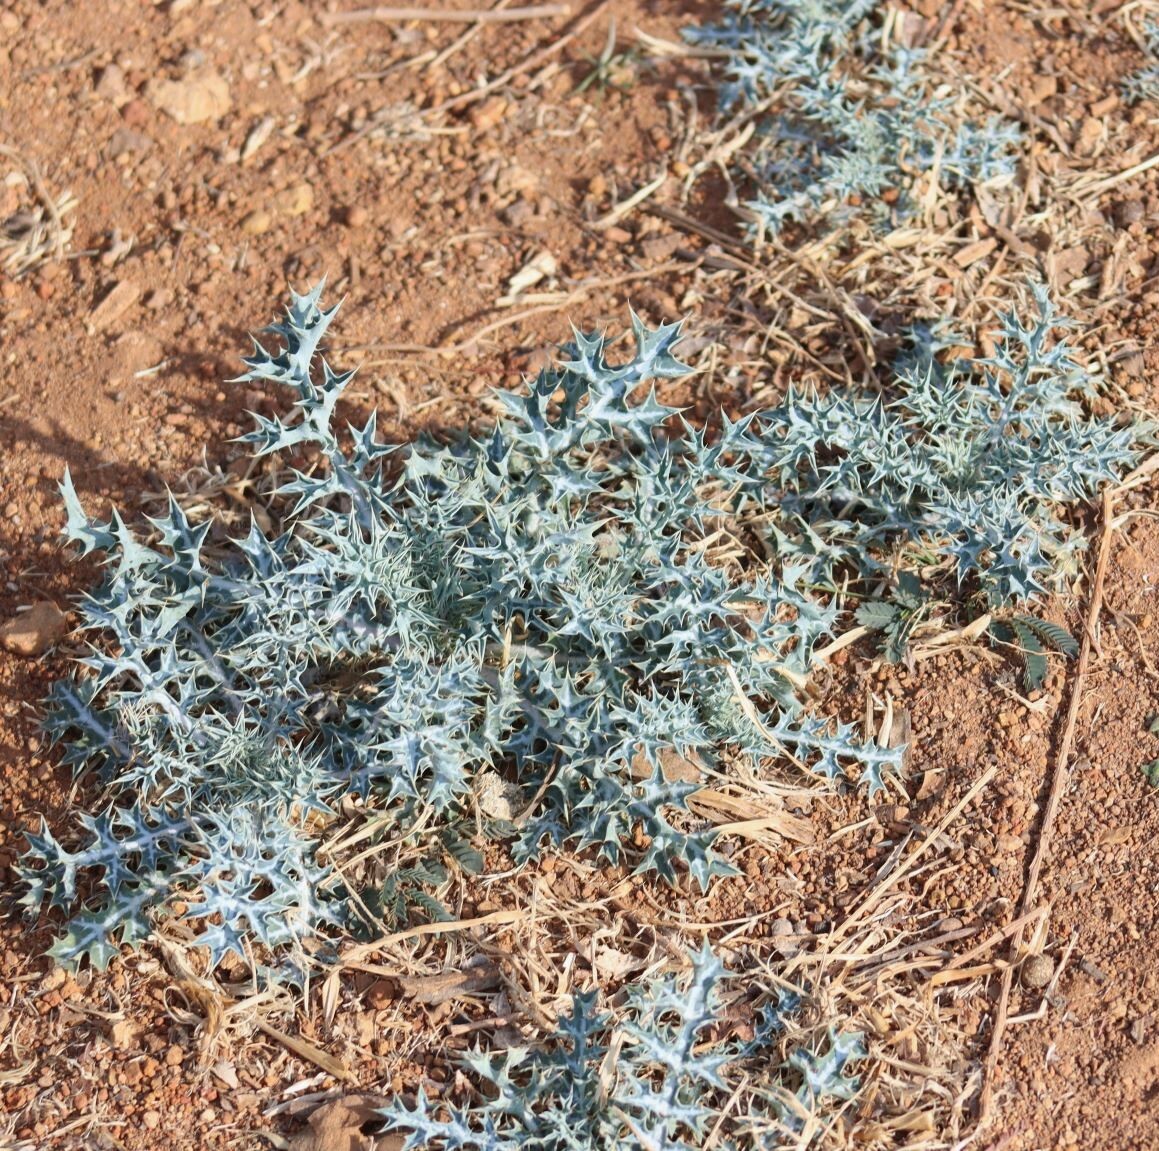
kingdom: Plantae
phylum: Tracheophyta
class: Magnoliopsida
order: Ranunculales
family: Papaveraceae
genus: Argemone
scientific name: Argemone ochroleuca
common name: White-flower mexican-poppy
